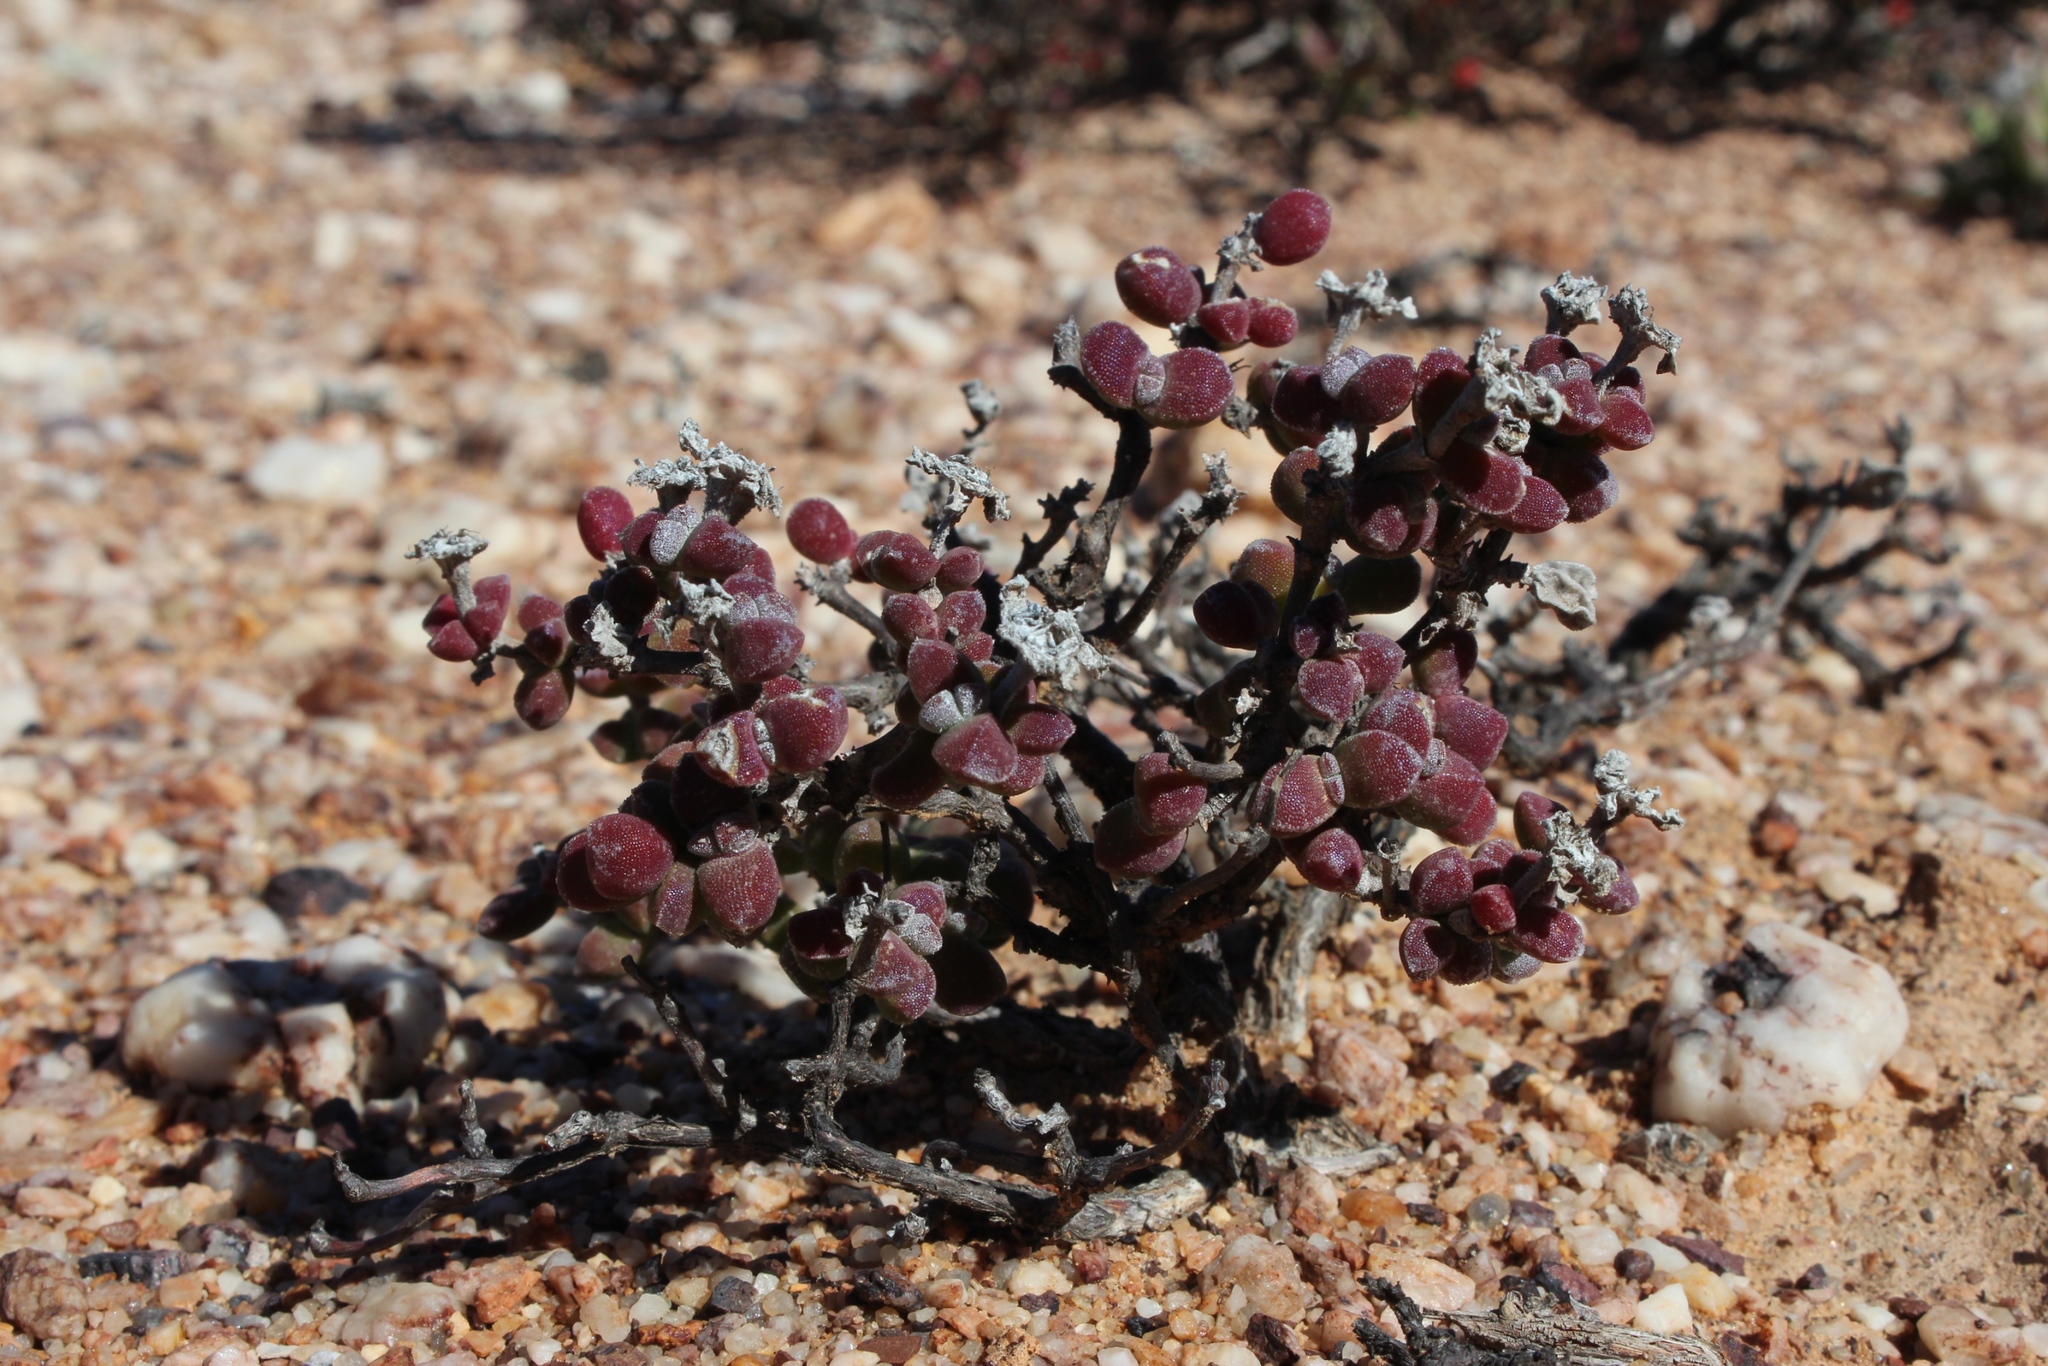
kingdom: Plantae
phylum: Tracheophyta
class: Magnoliopsida
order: Caryophyllales
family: Aizoaceae
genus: Drosanthemopsis
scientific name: Drosanthemopsis diversifolia
